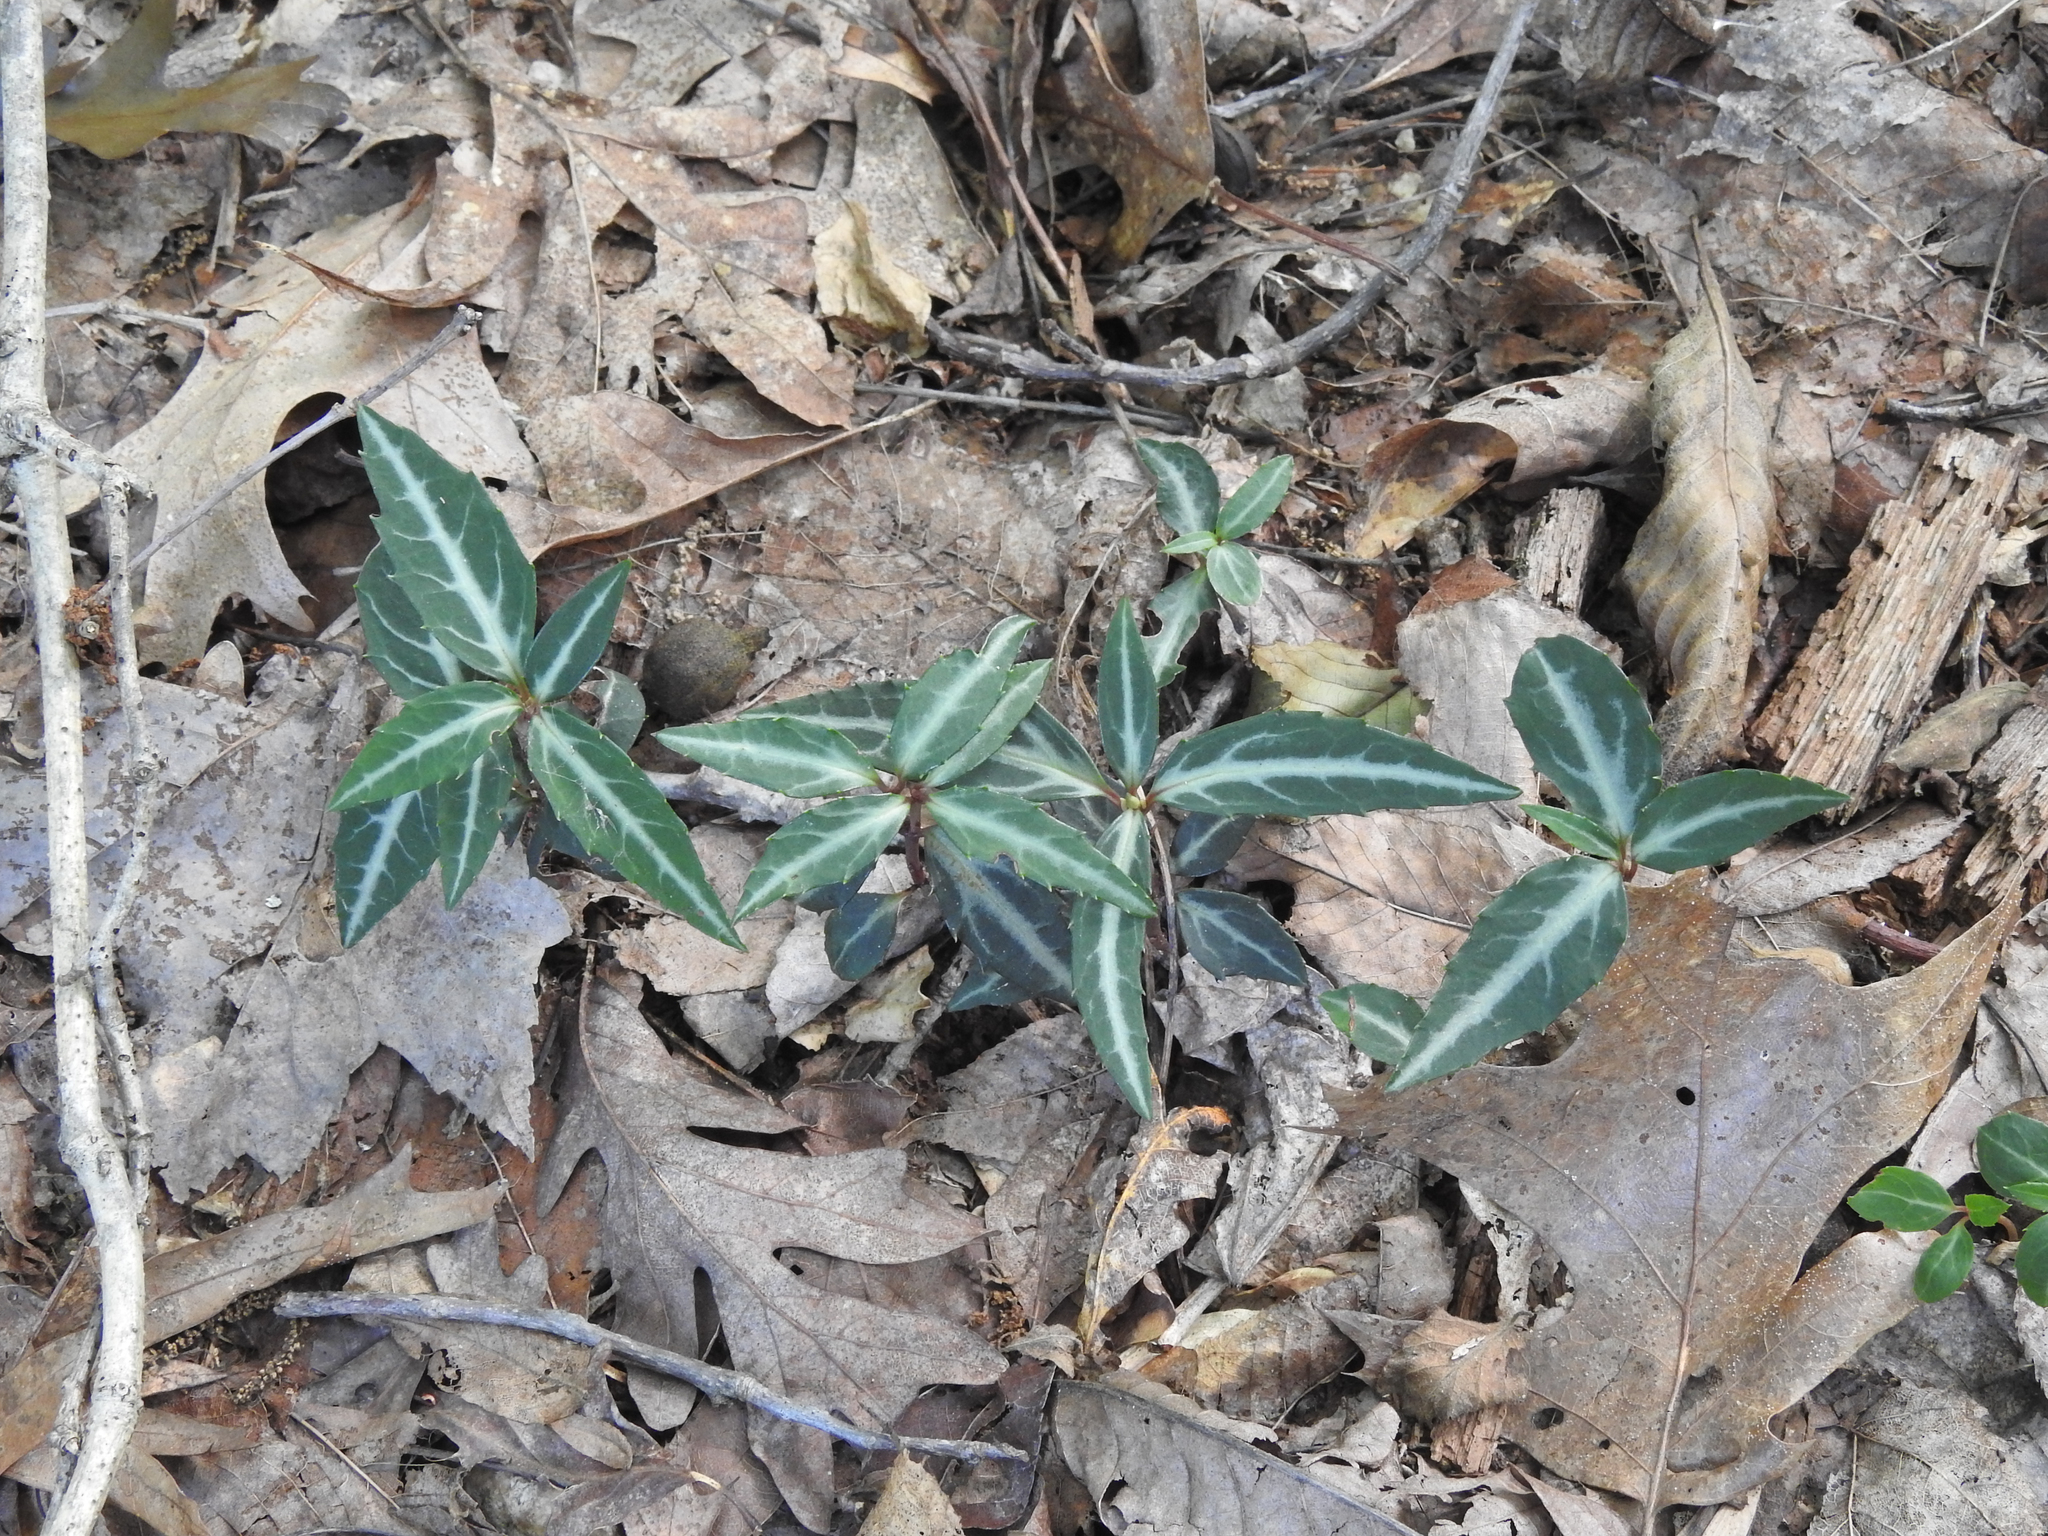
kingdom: Plantae
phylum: Tracheophyta
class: Magnoliopsida
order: Ericales
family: Ericaceae
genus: Chimaphila
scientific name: Chimaphila maculata
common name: Spotted pipsissewa
